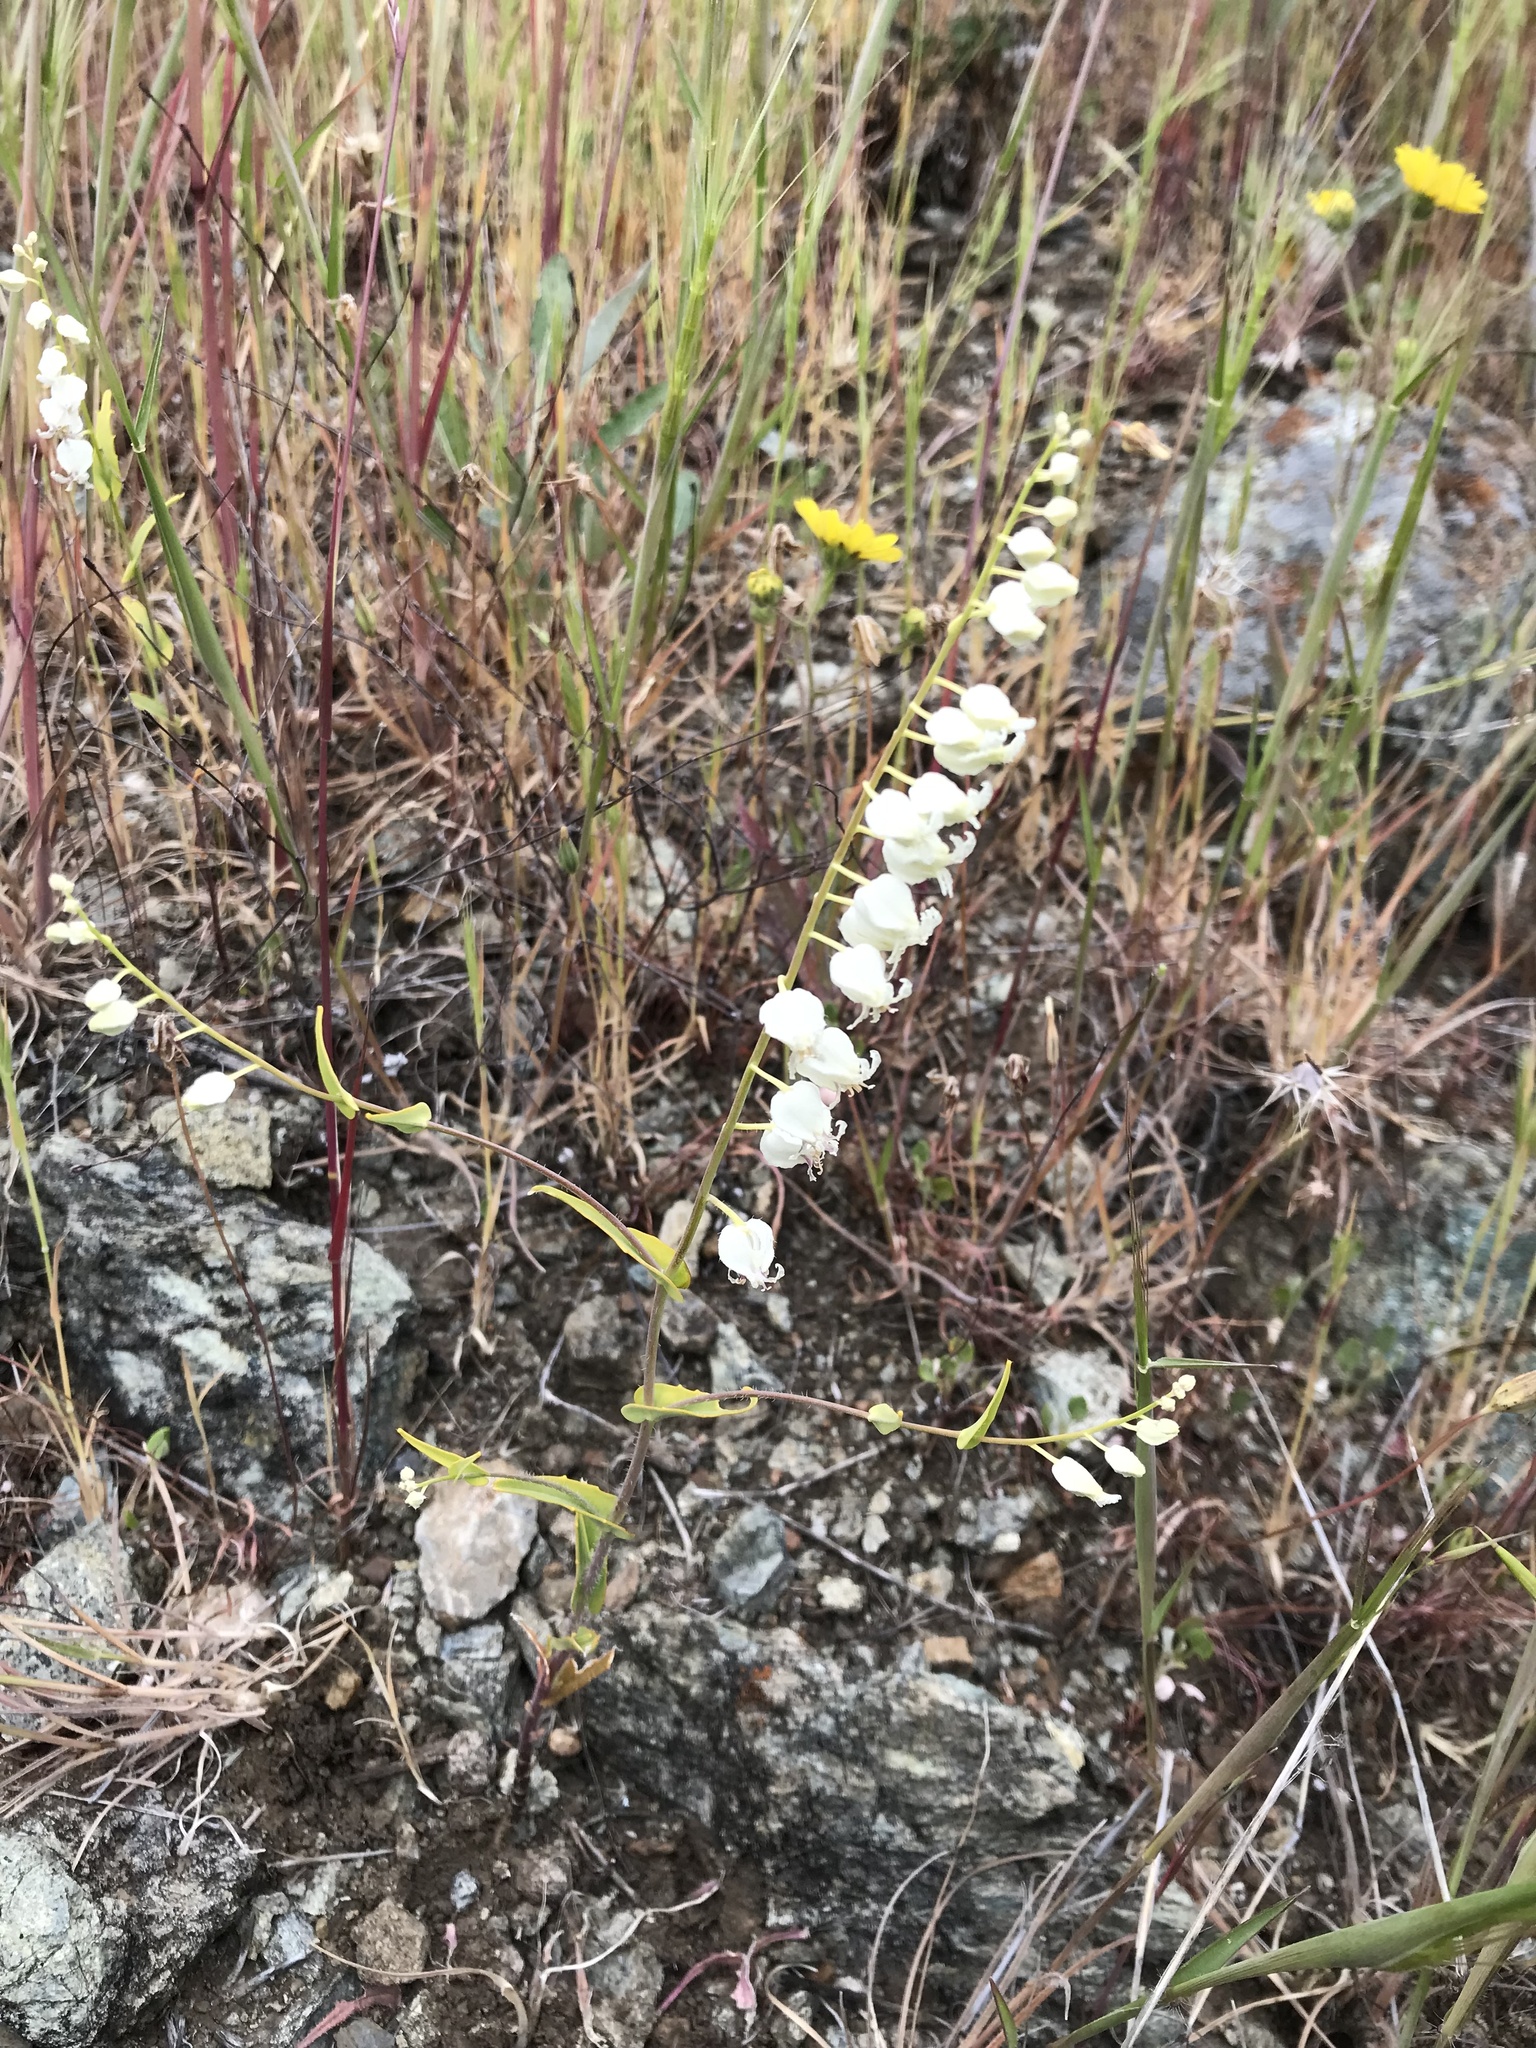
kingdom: Plantae
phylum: Tracheophyta
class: Magnoliopsida
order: Brassicales
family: Brassicaceae
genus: Streptanthus
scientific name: Streptanthus glandulosus
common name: Jewel-flower
